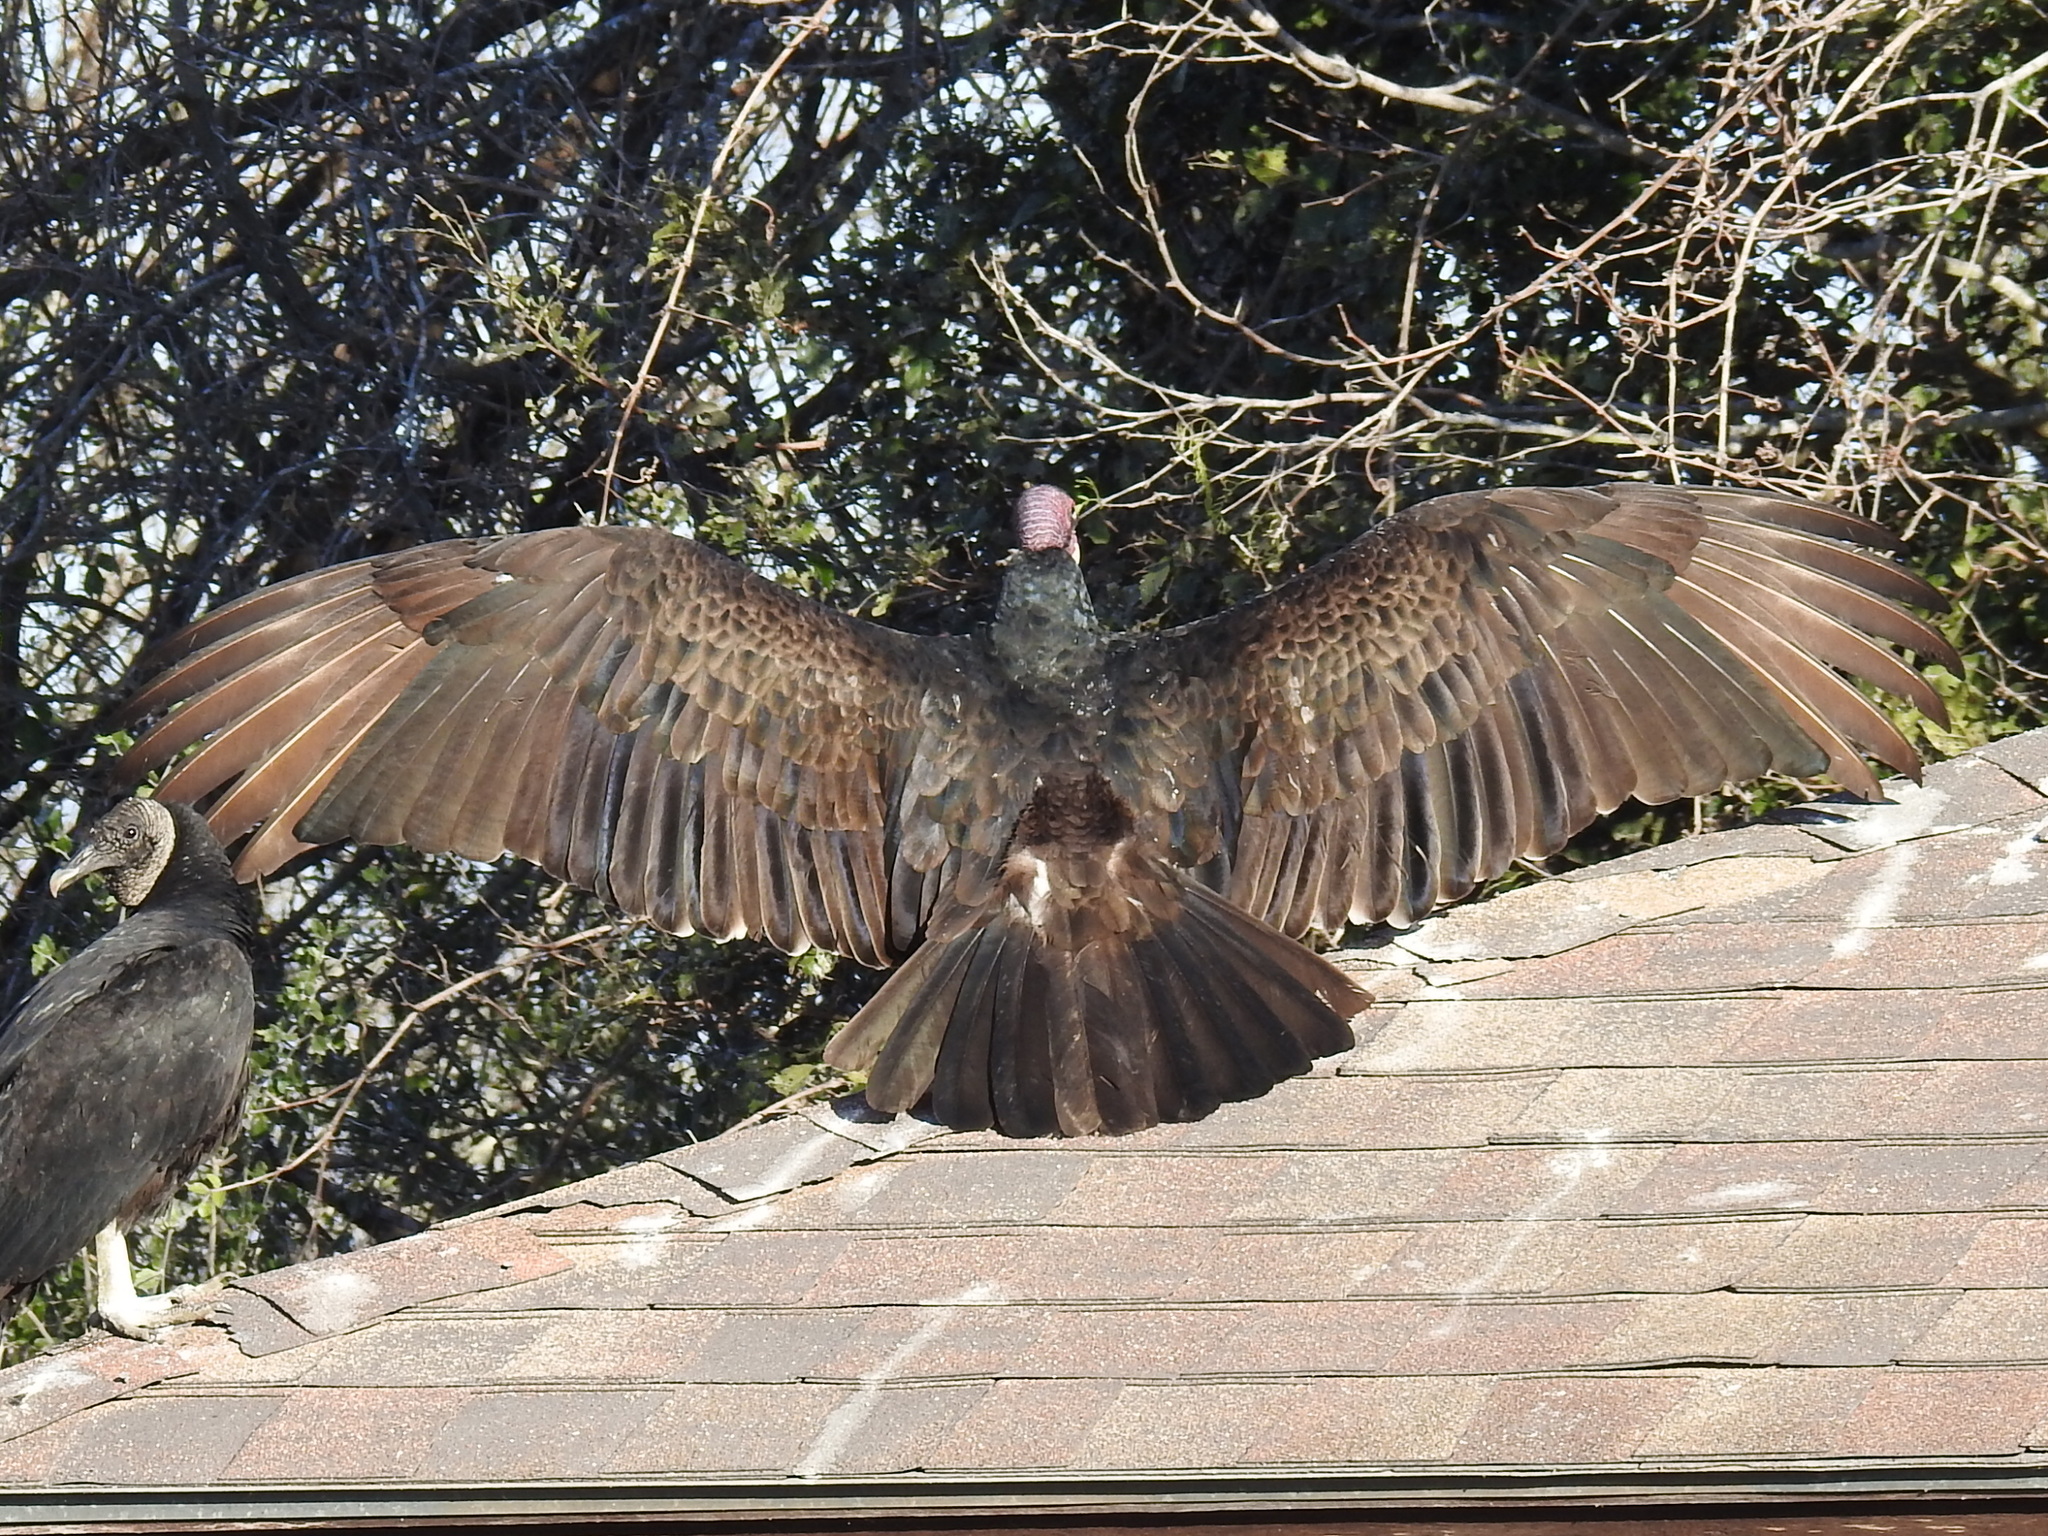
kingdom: Animalia
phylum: Chordata
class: Aves
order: Accipitriformes
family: Cathartidae
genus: Cathartes
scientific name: Cathartes aura
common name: Turkey vulture
